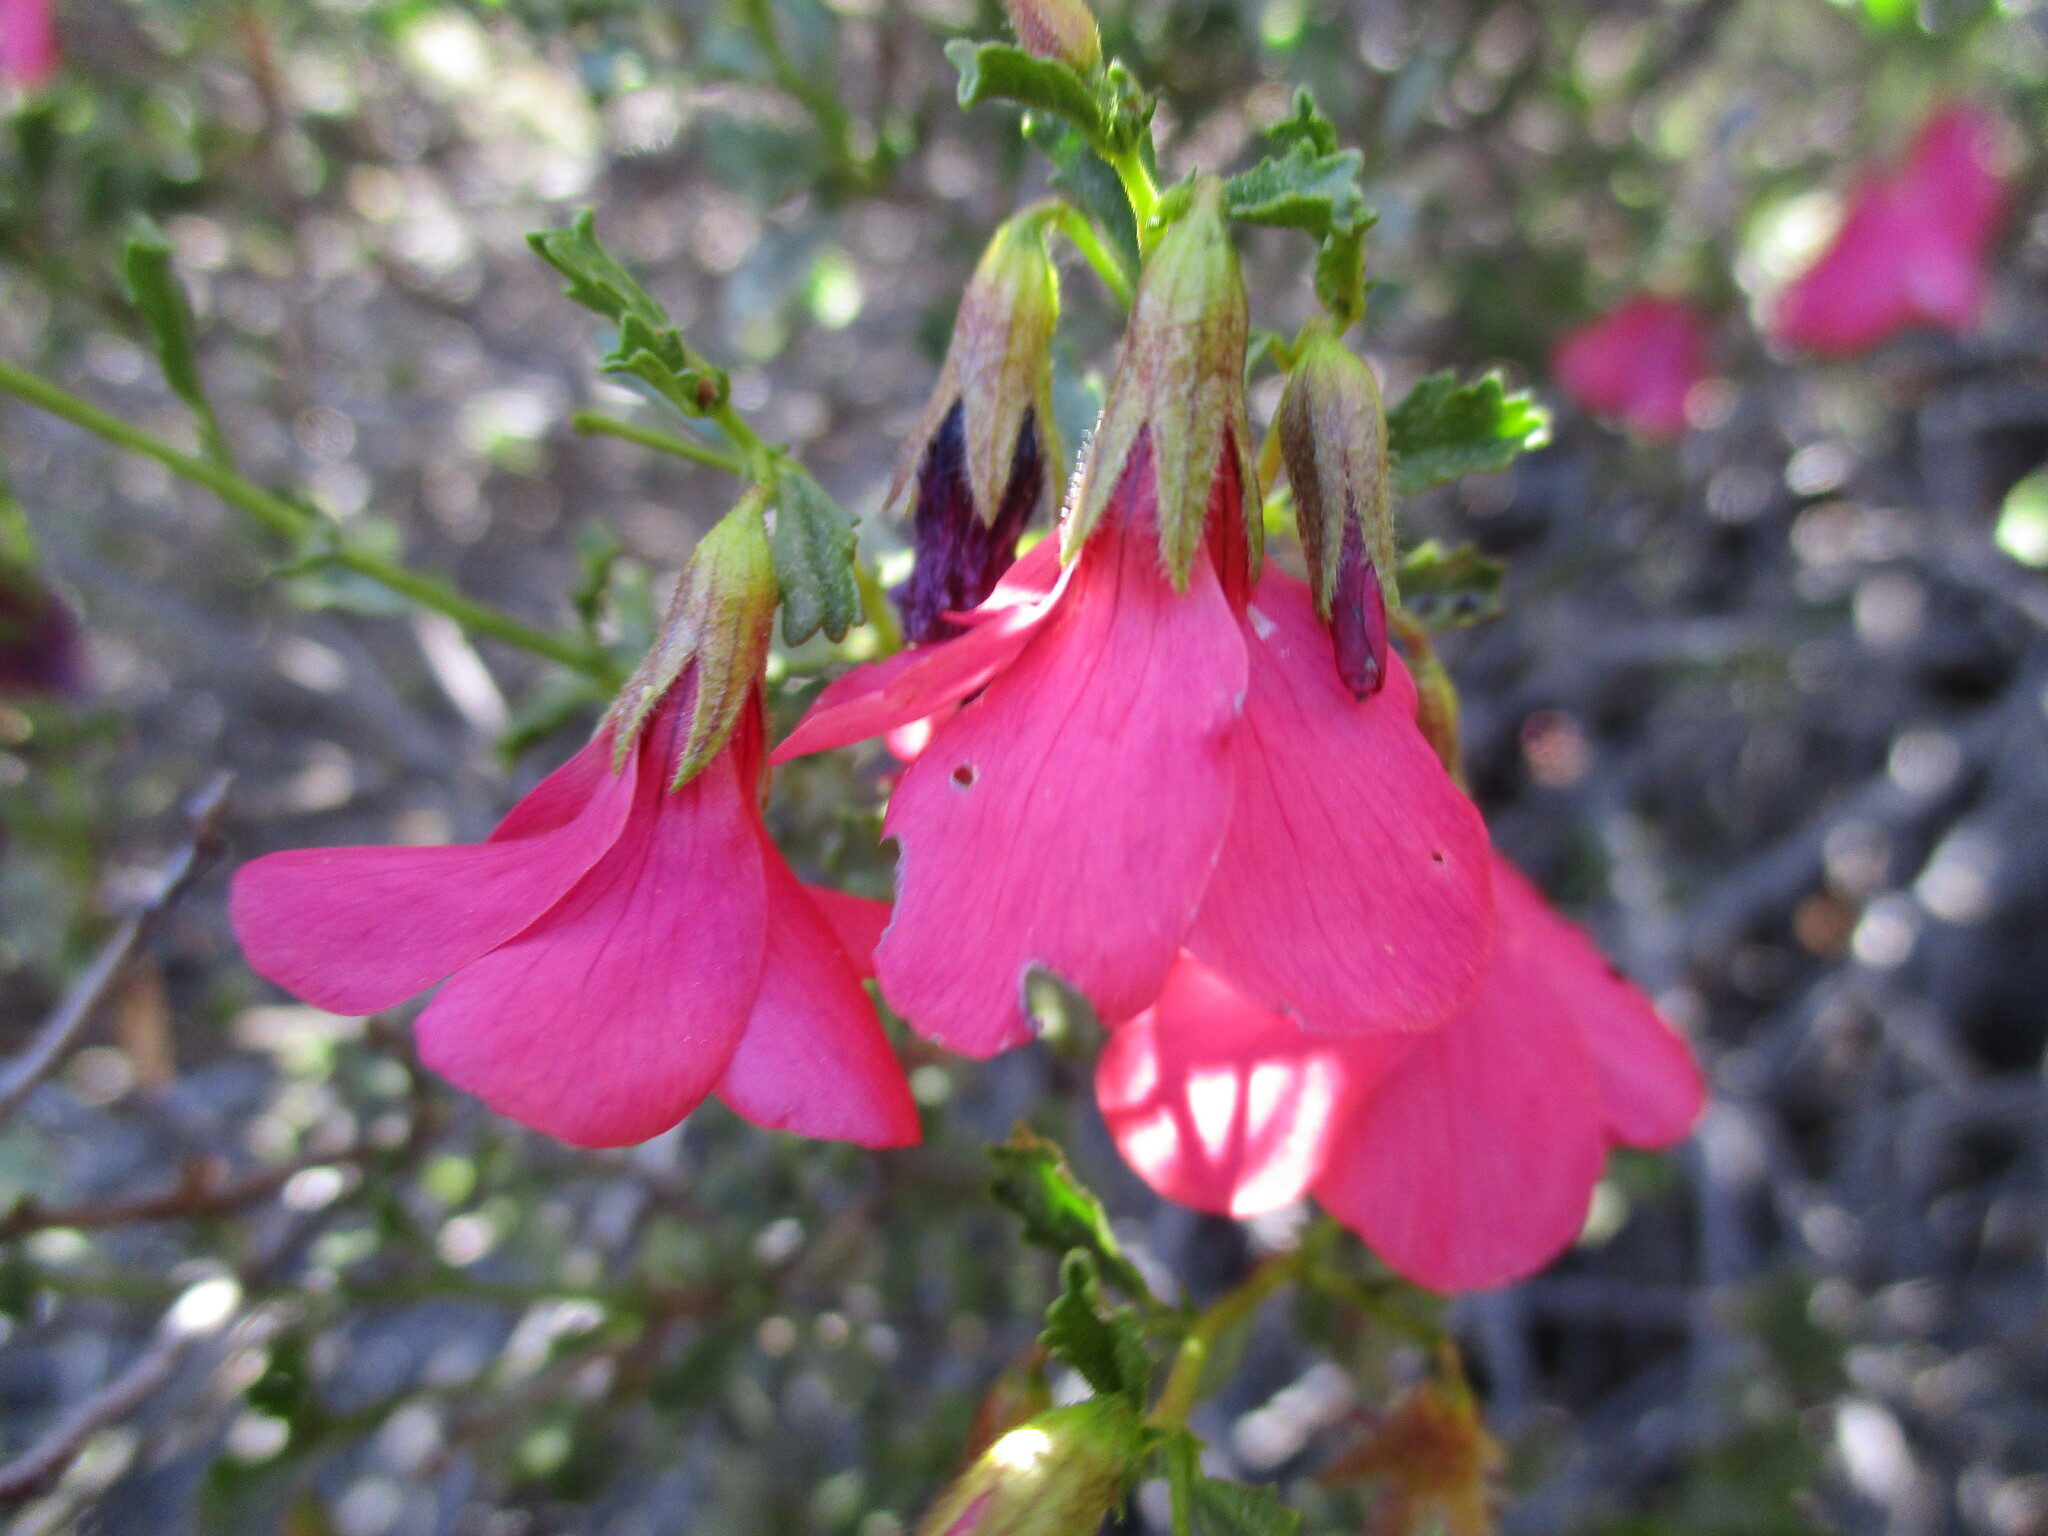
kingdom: Plantae
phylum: Tracheophyta
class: Magnoliopsida
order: Malvales
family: Malvaceae
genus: Hermannia
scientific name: Hermannia stricta
